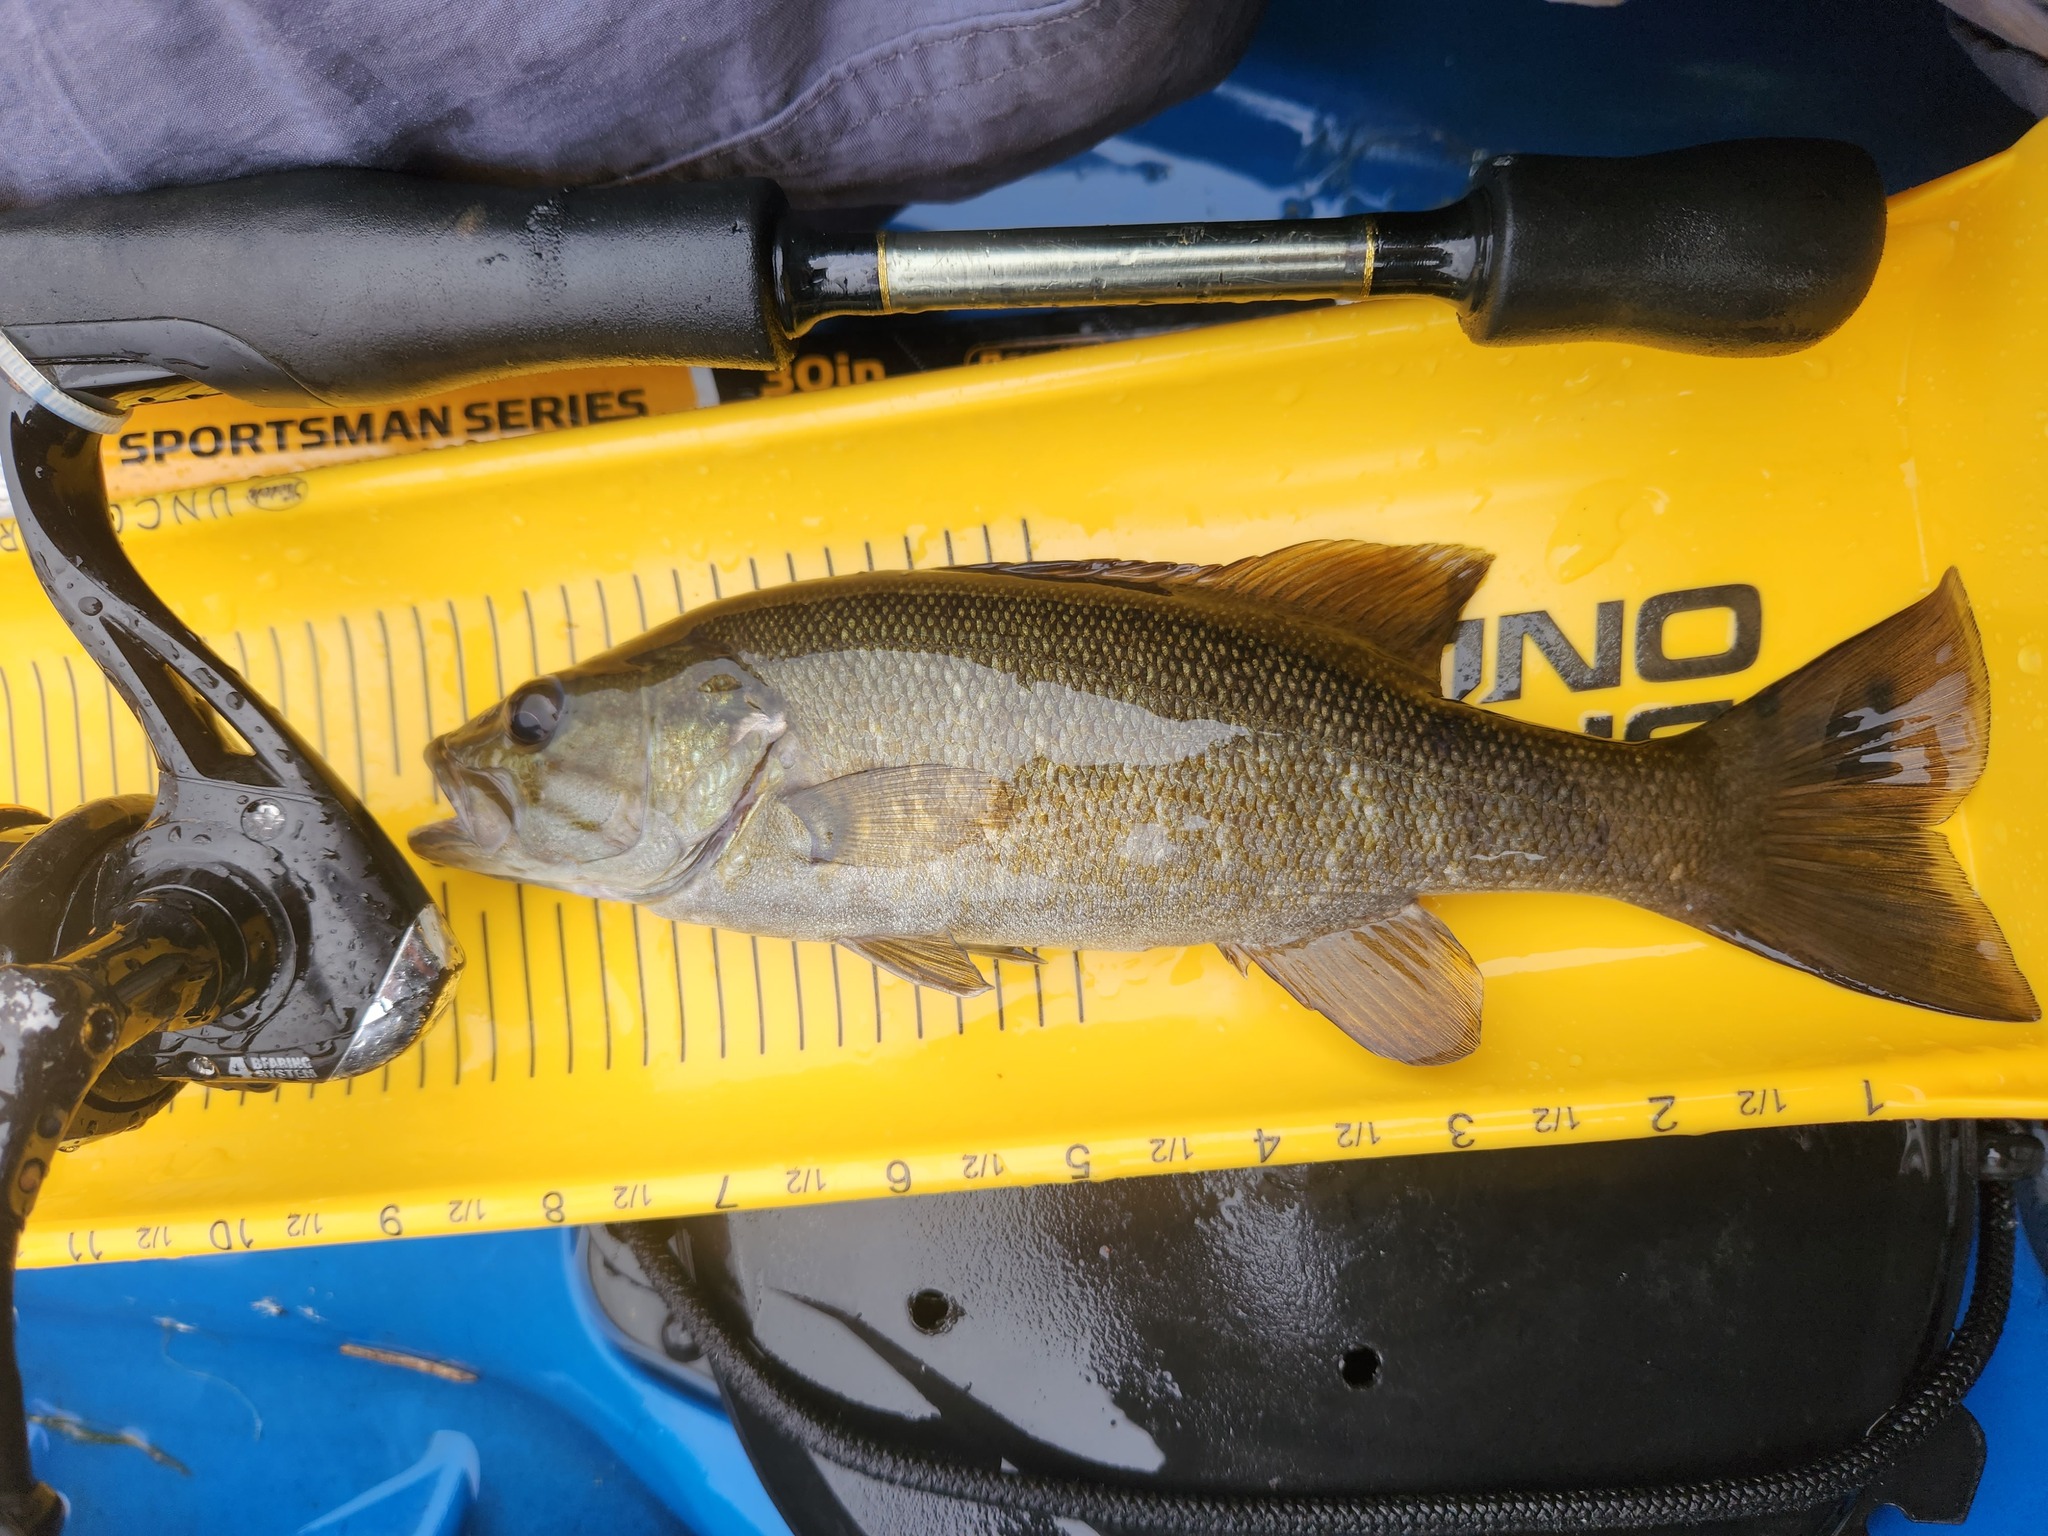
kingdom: Animalia
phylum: Chordata
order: Perciformes
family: Centrarchidae
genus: Micropterus
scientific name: Micropterus dolomieu
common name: Smallmouth bass
